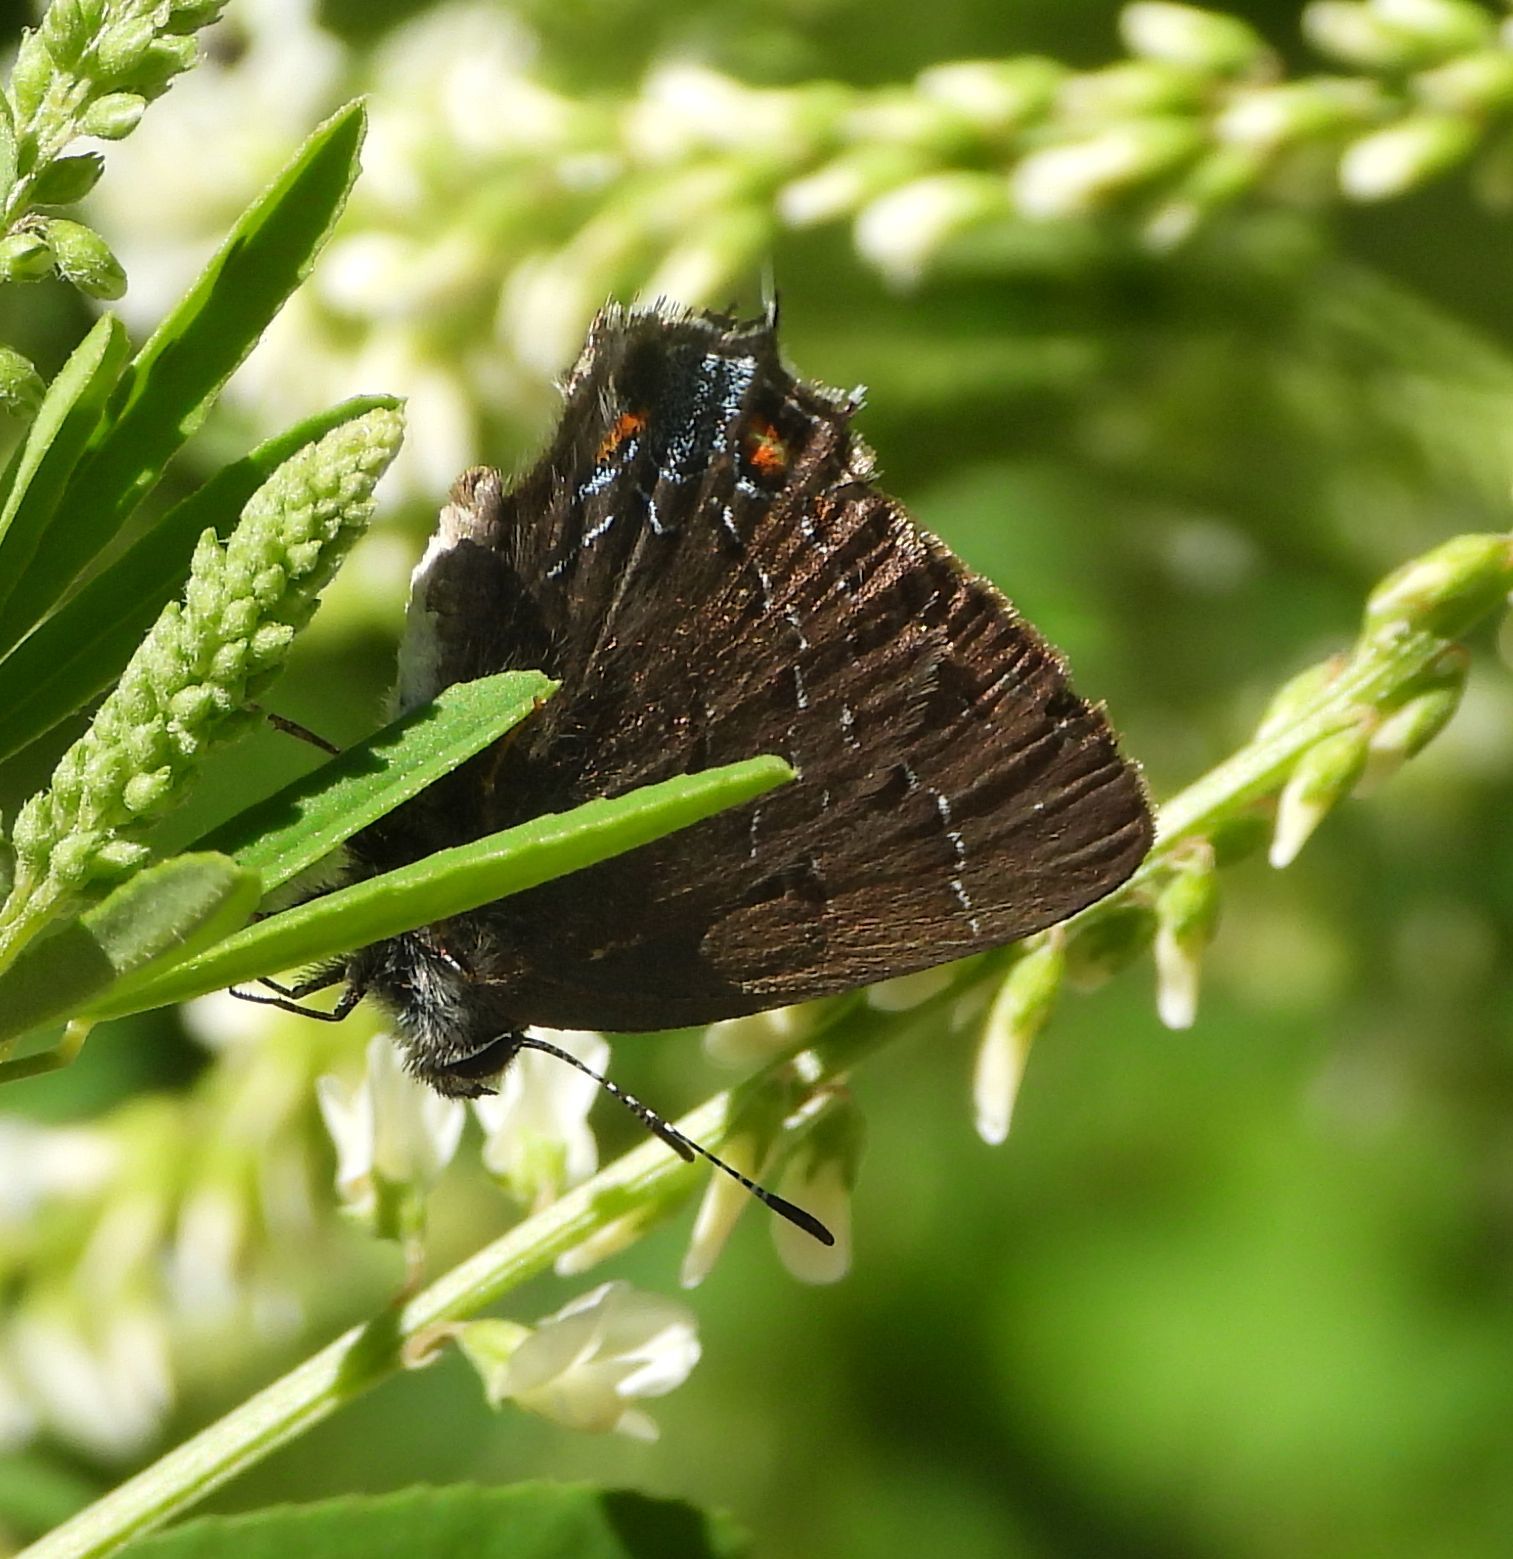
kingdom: Animalia
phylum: Arthropoda
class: Insecta
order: Lepidoptera
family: Lycaenidae
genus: Satyrium
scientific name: Satyrium calanus
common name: Banded hairstreak
